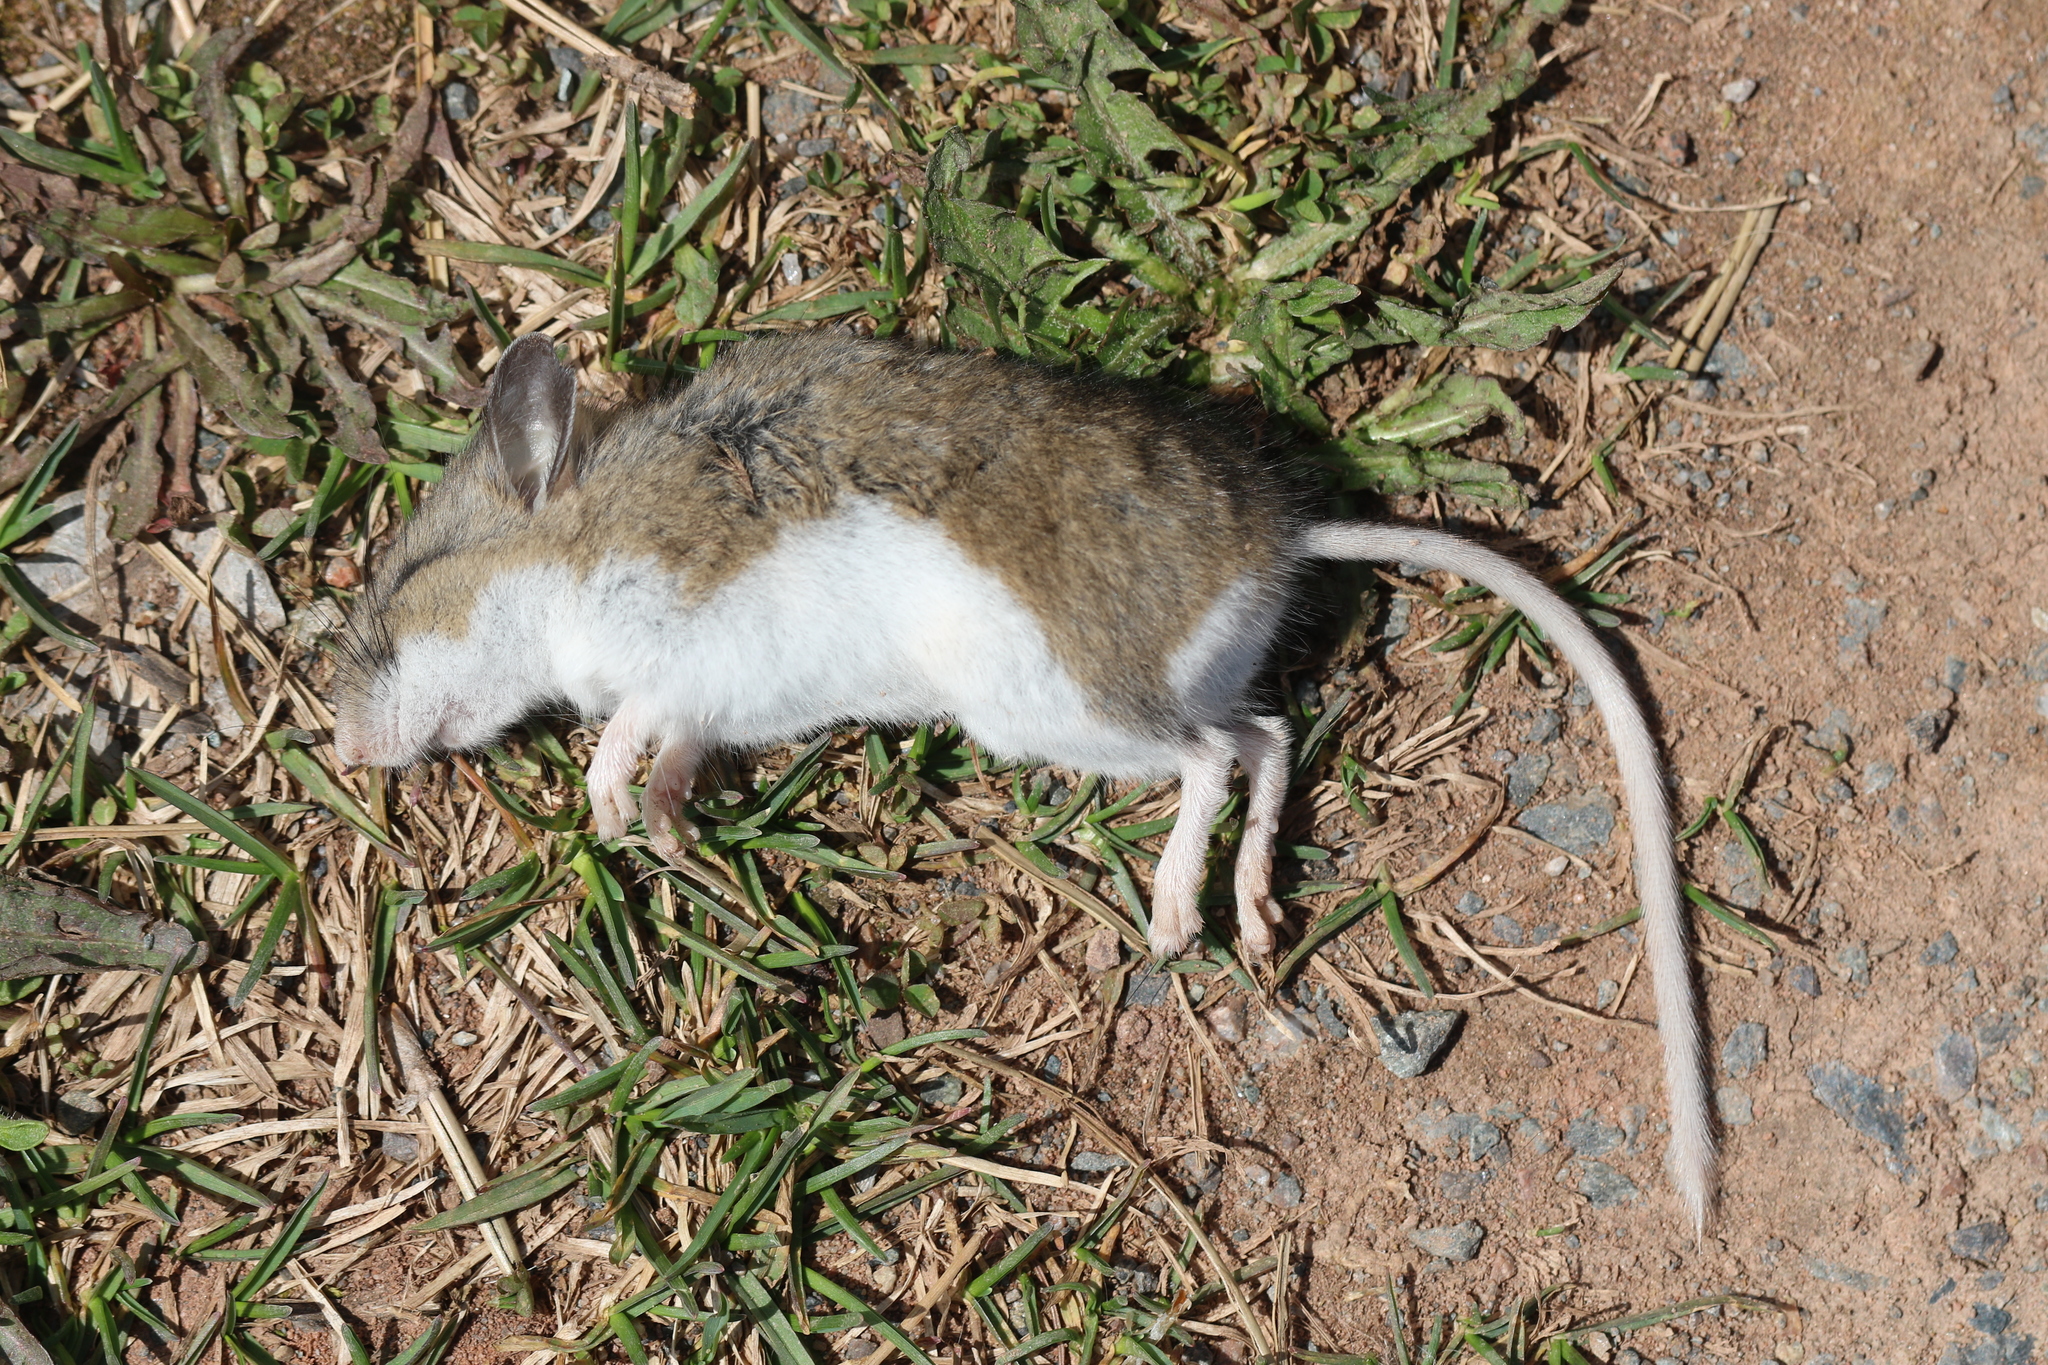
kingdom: Animalia
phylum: Chordata
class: Mammalia
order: Rodentia
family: Cricetidae
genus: Peromyscus
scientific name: Peromyscus maniculatus
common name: Deer mouse
